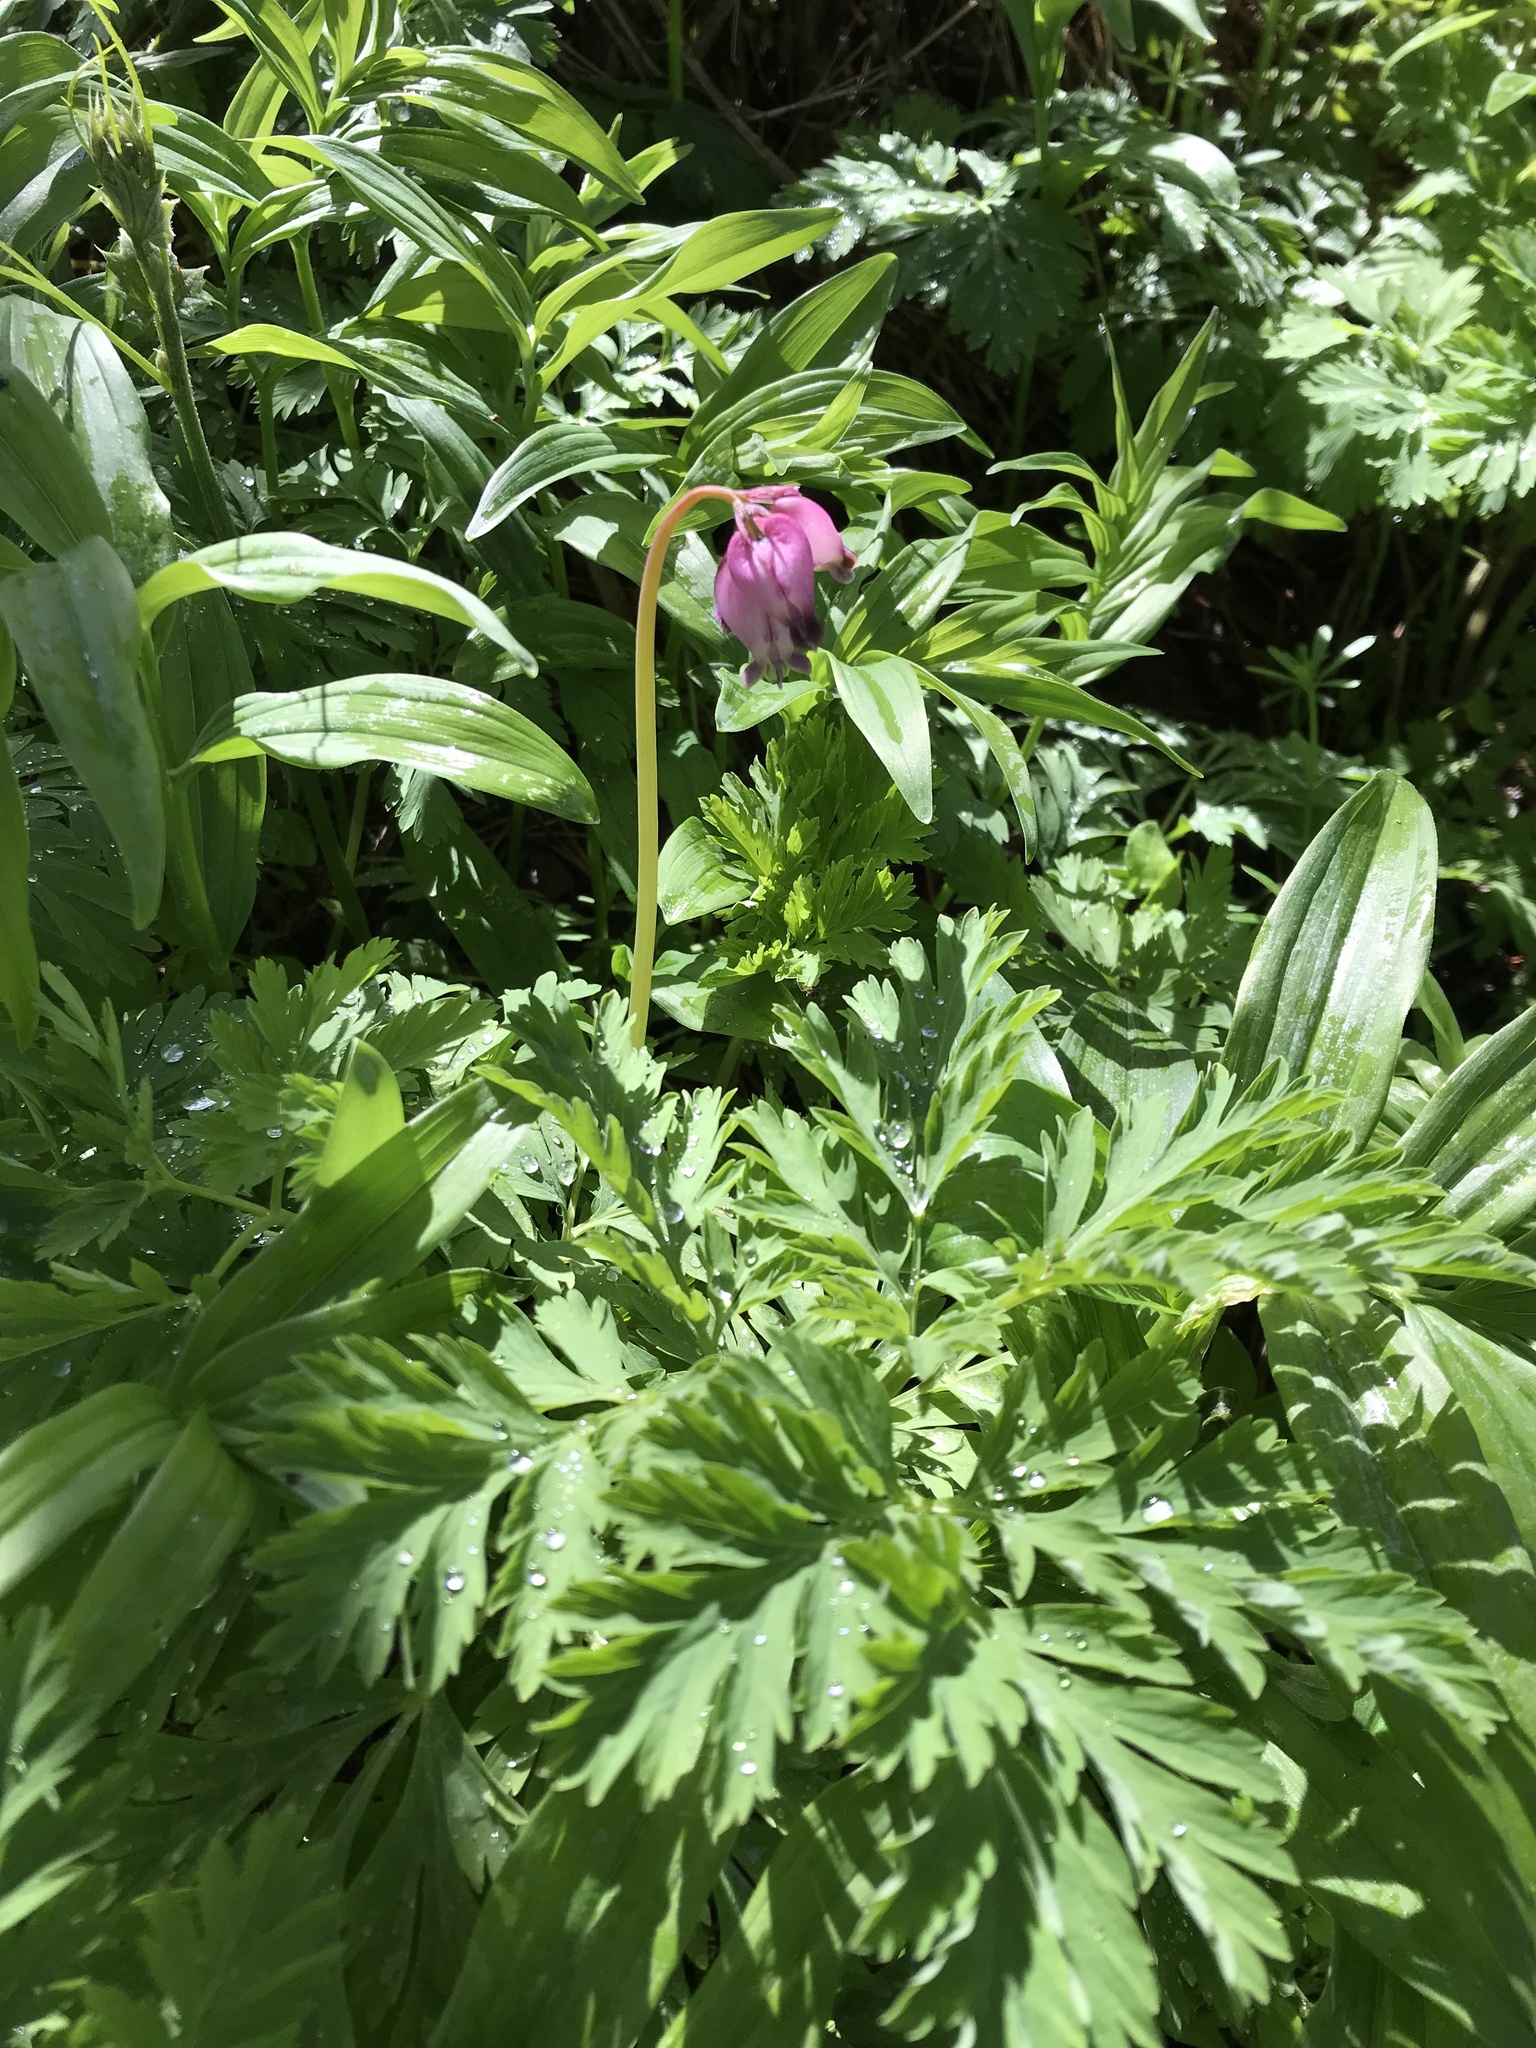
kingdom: Plantae
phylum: Tracheophyta
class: Magnoliopsida
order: Ranunculales
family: Papaveraceae
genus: Dicentra
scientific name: Dicentra formosa
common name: Bleeding-heart
